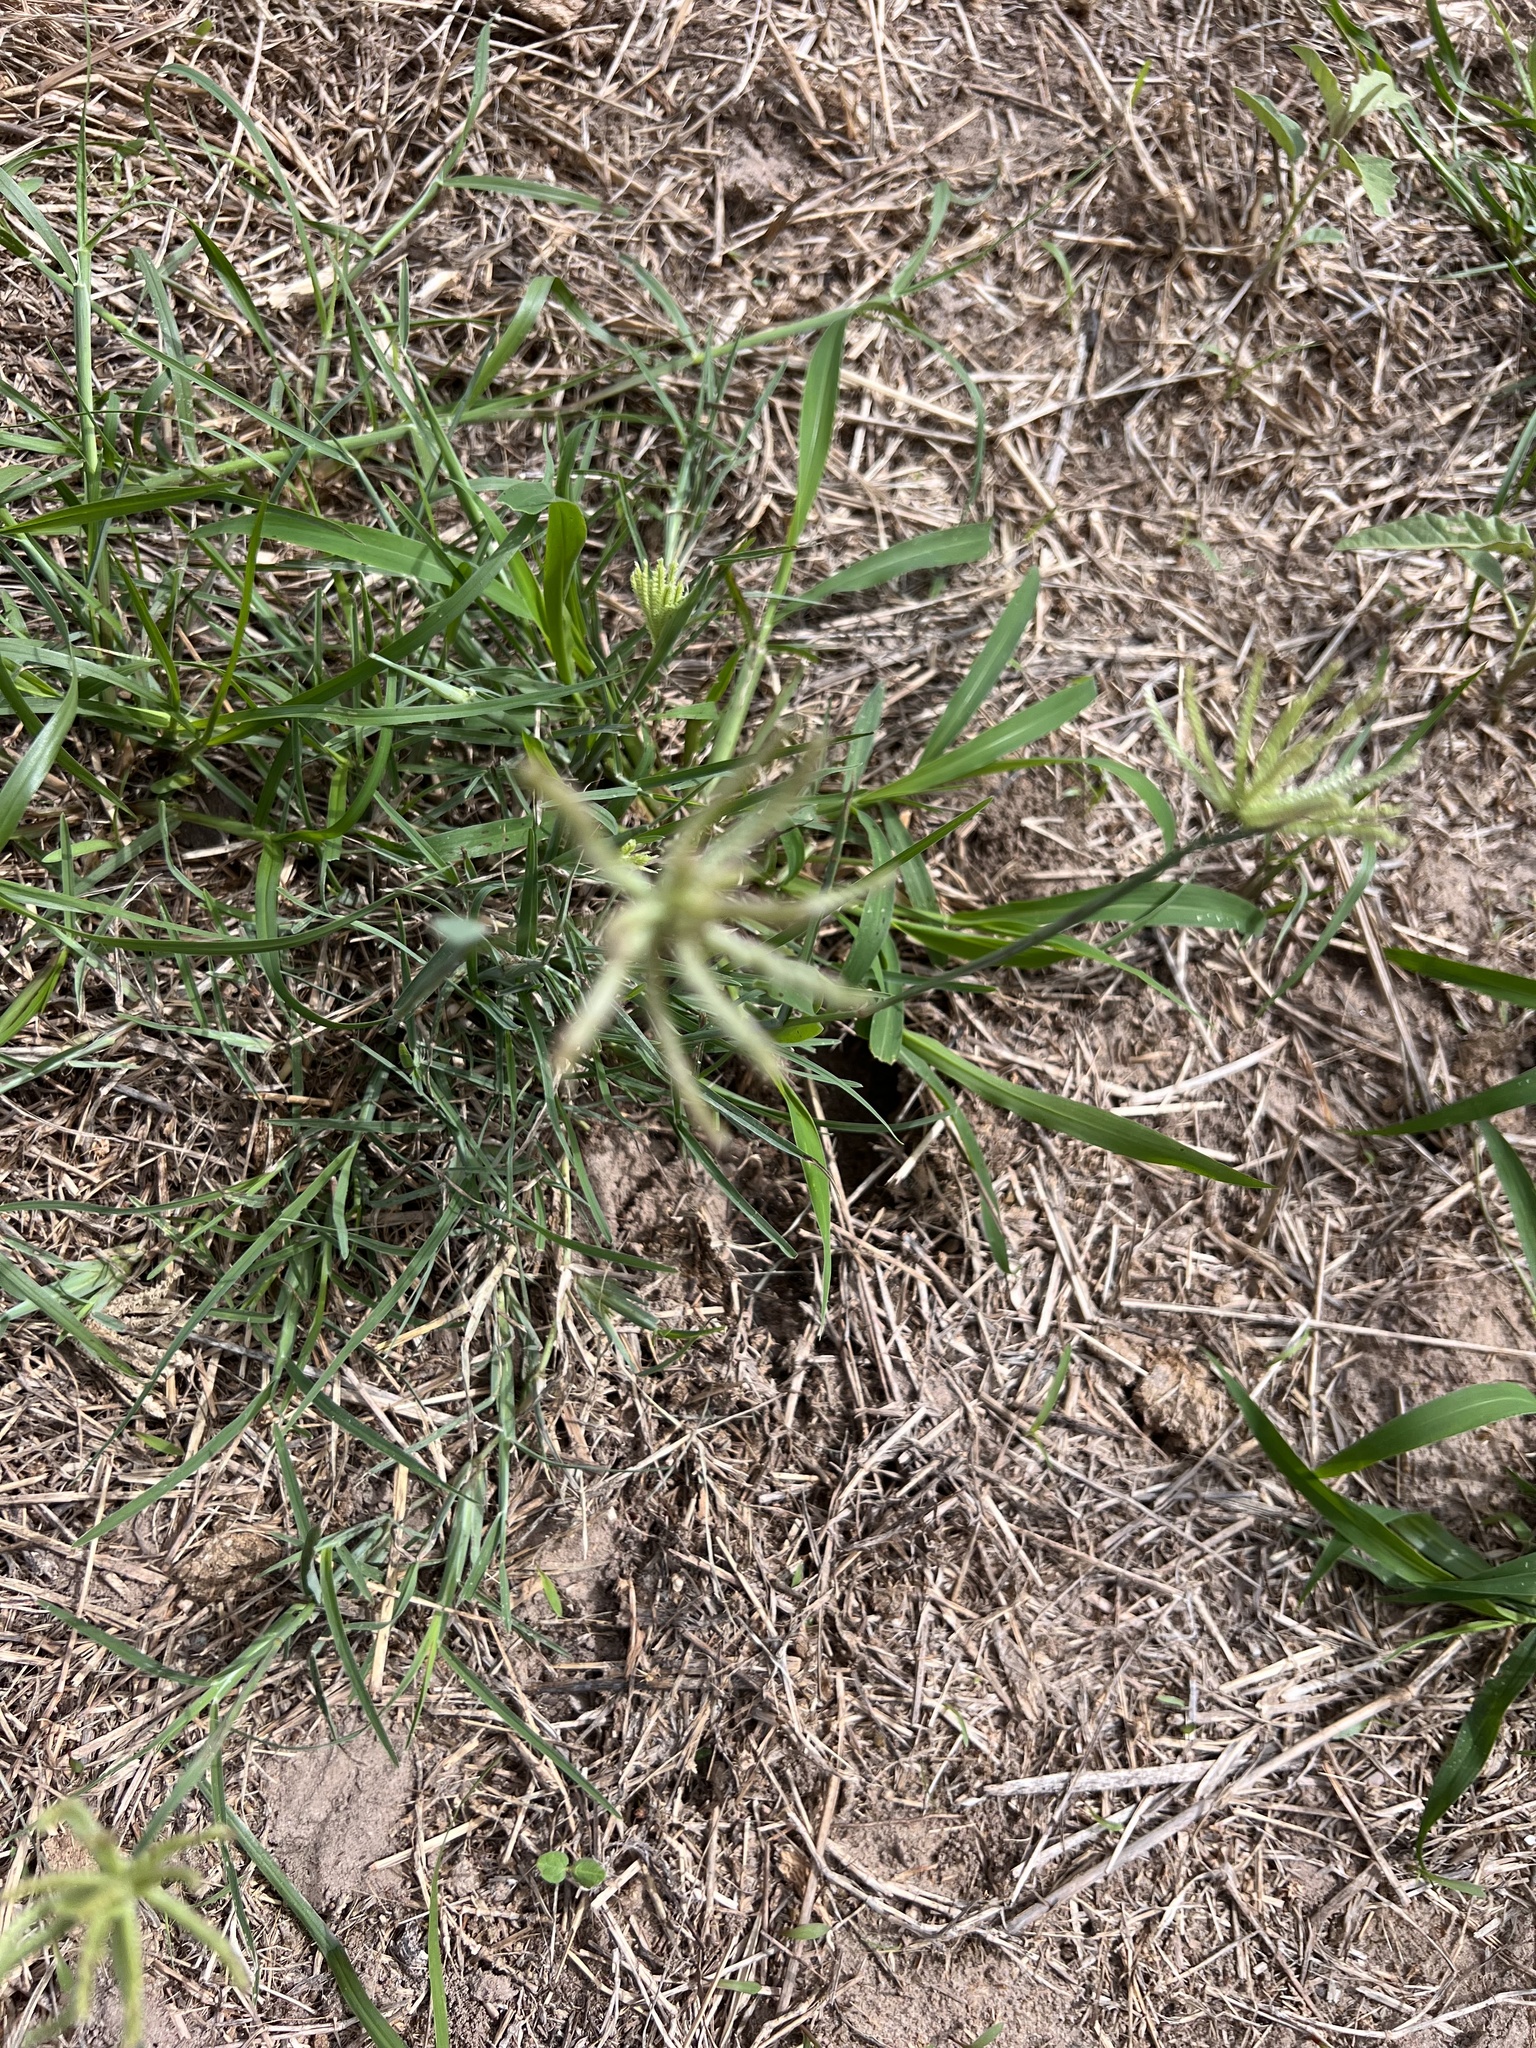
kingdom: Plantae
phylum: Tracheophyta
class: Liliopsida
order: Poales
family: Poaceae
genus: Chloris
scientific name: Chloris cucullata
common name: Hooded windmill grass
